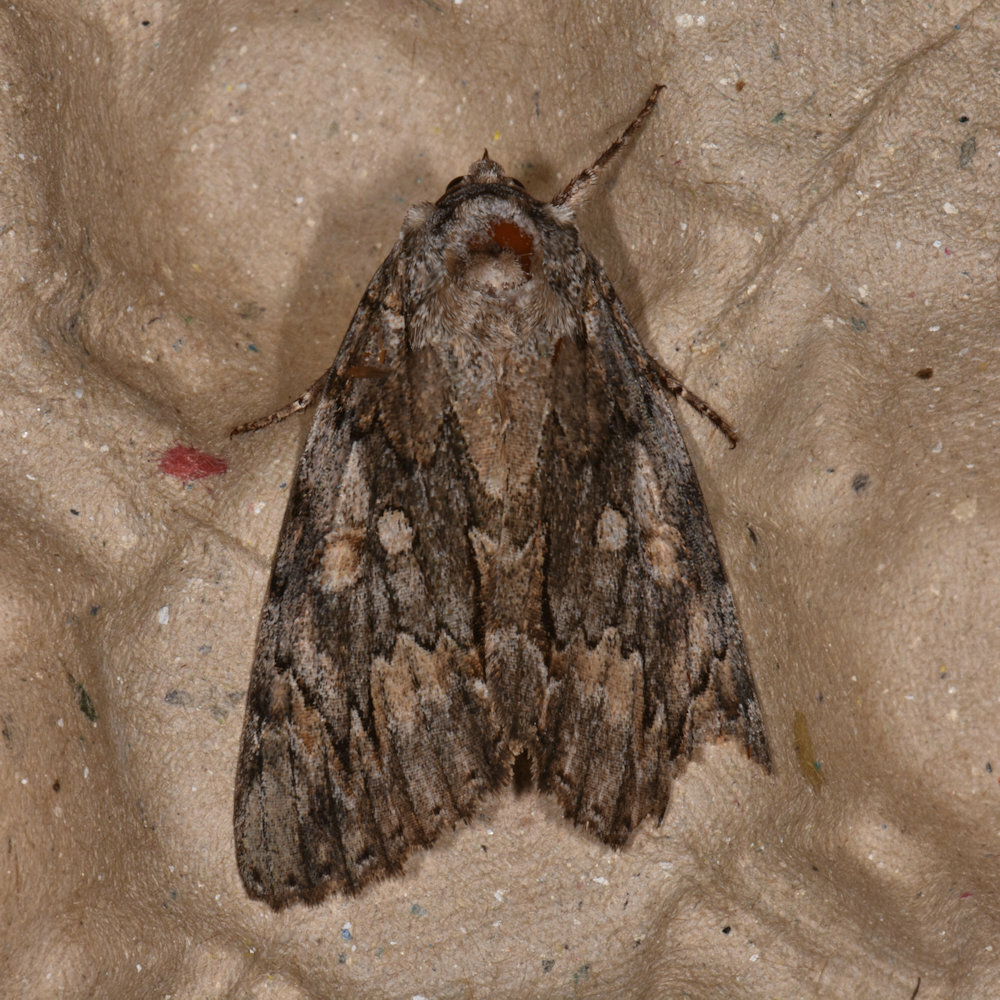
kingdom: Animalia
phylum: Arthropoda
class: Insecta
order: Lepidoptera
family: Erebidae
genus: Catocala
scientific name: Catocala neogama
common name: Bride underwing
